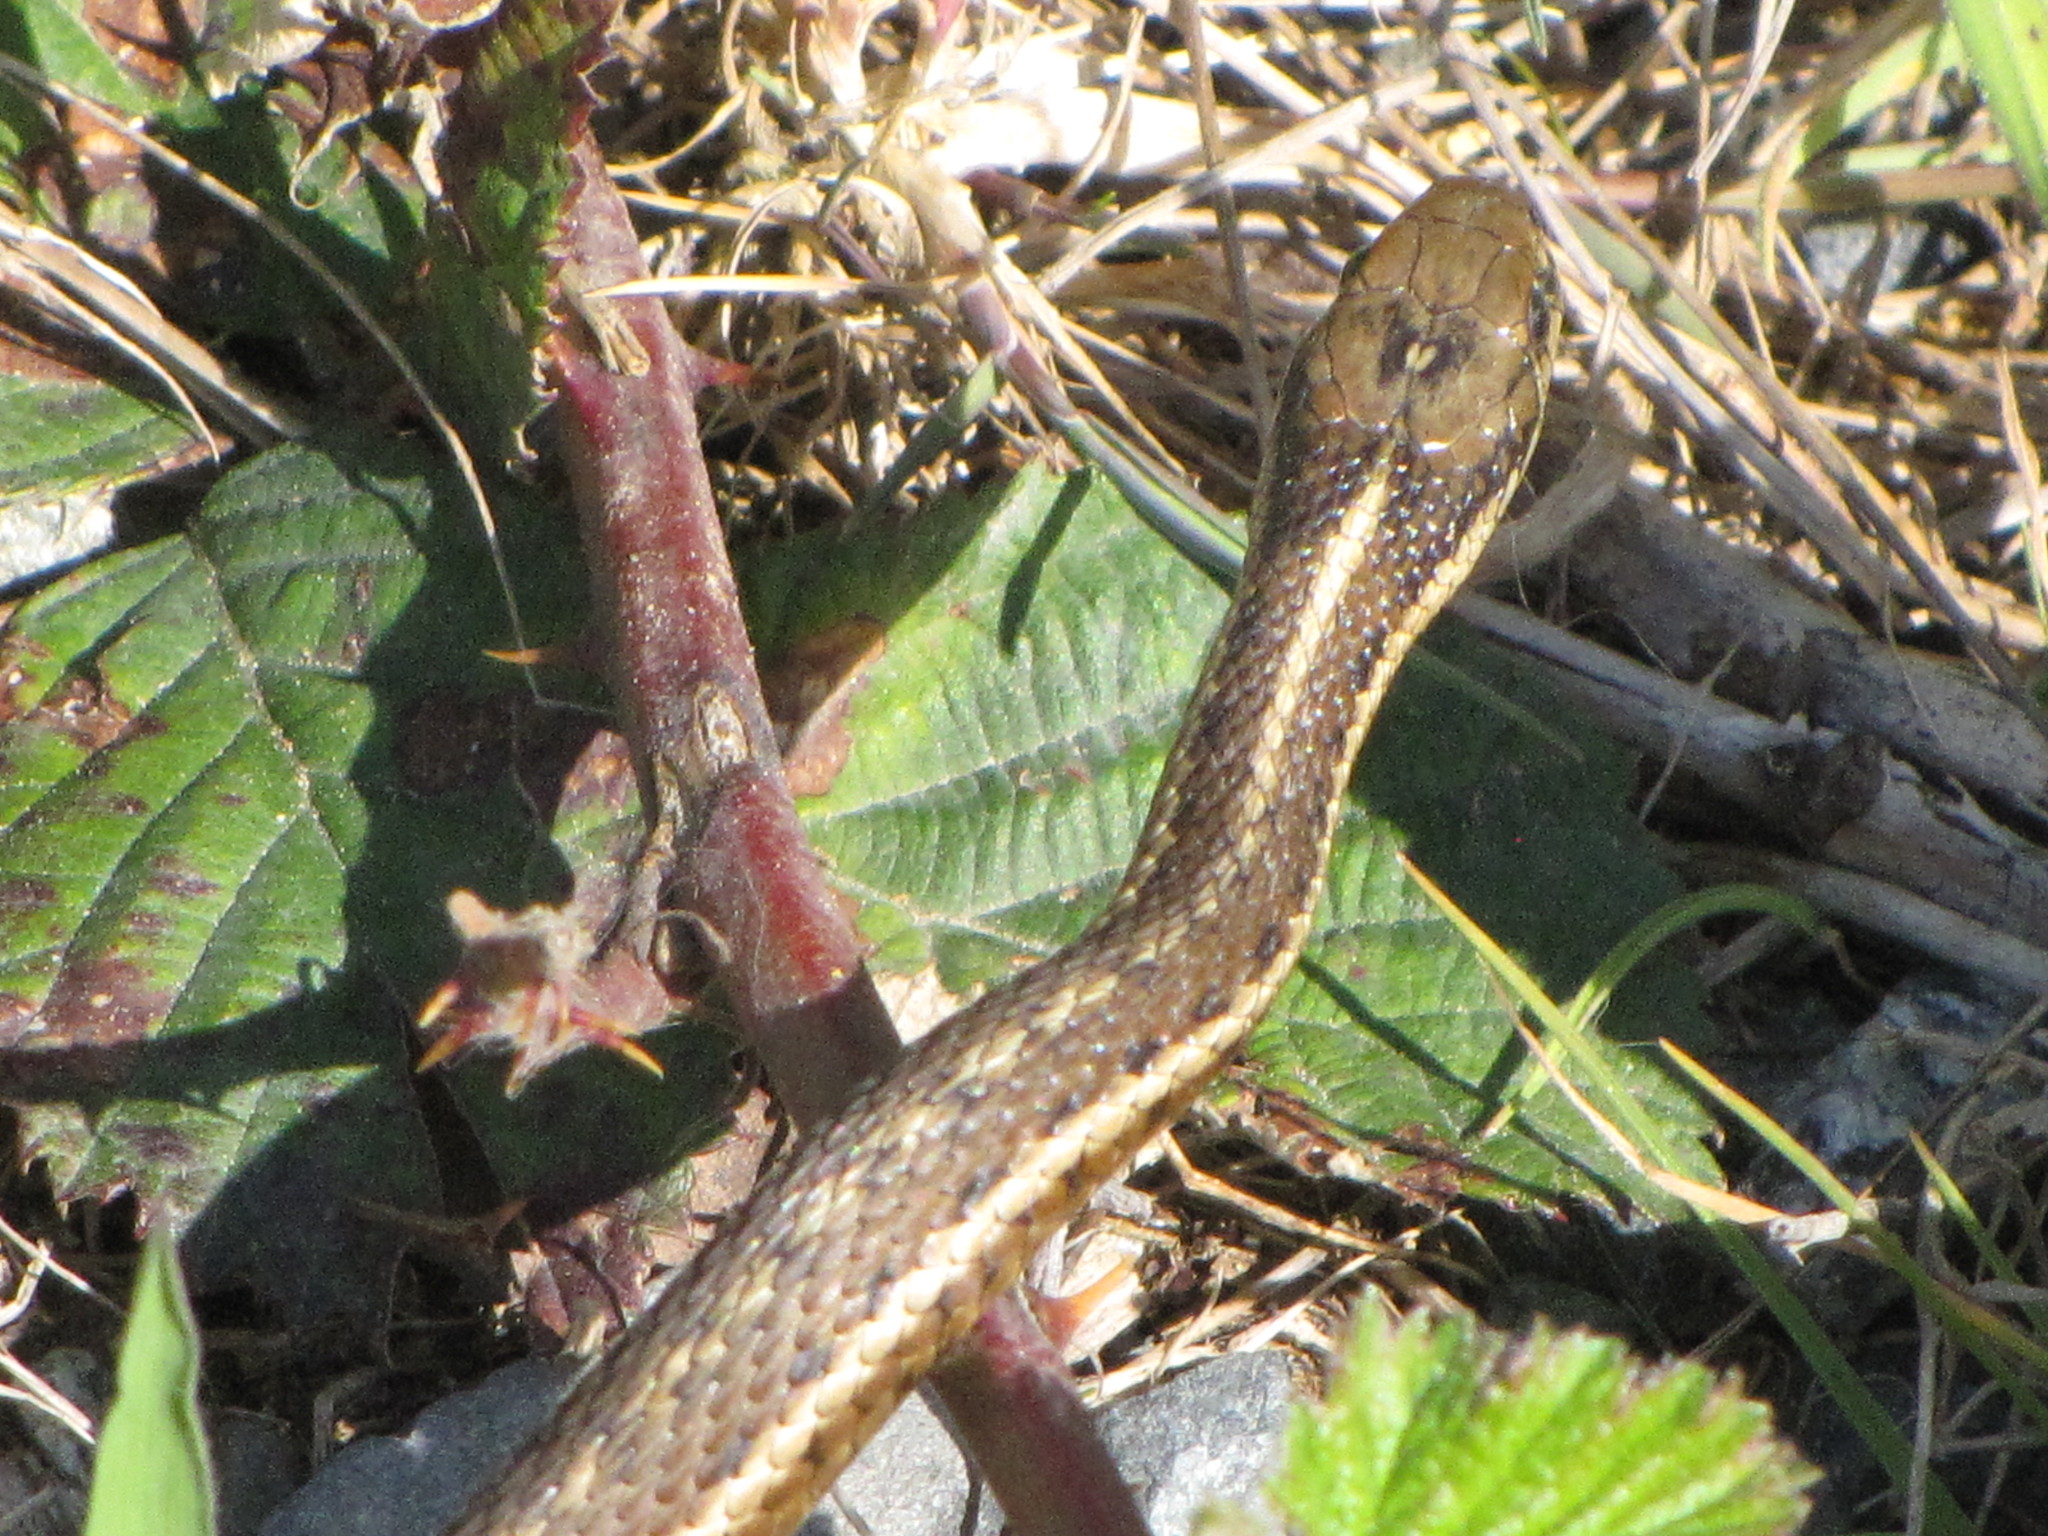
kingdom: Animalia
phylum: Chordata
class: Squamata
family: Colubridae
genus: Thamnophis
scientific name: Thamnophis ordinoides
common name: Northwestern garter snake
